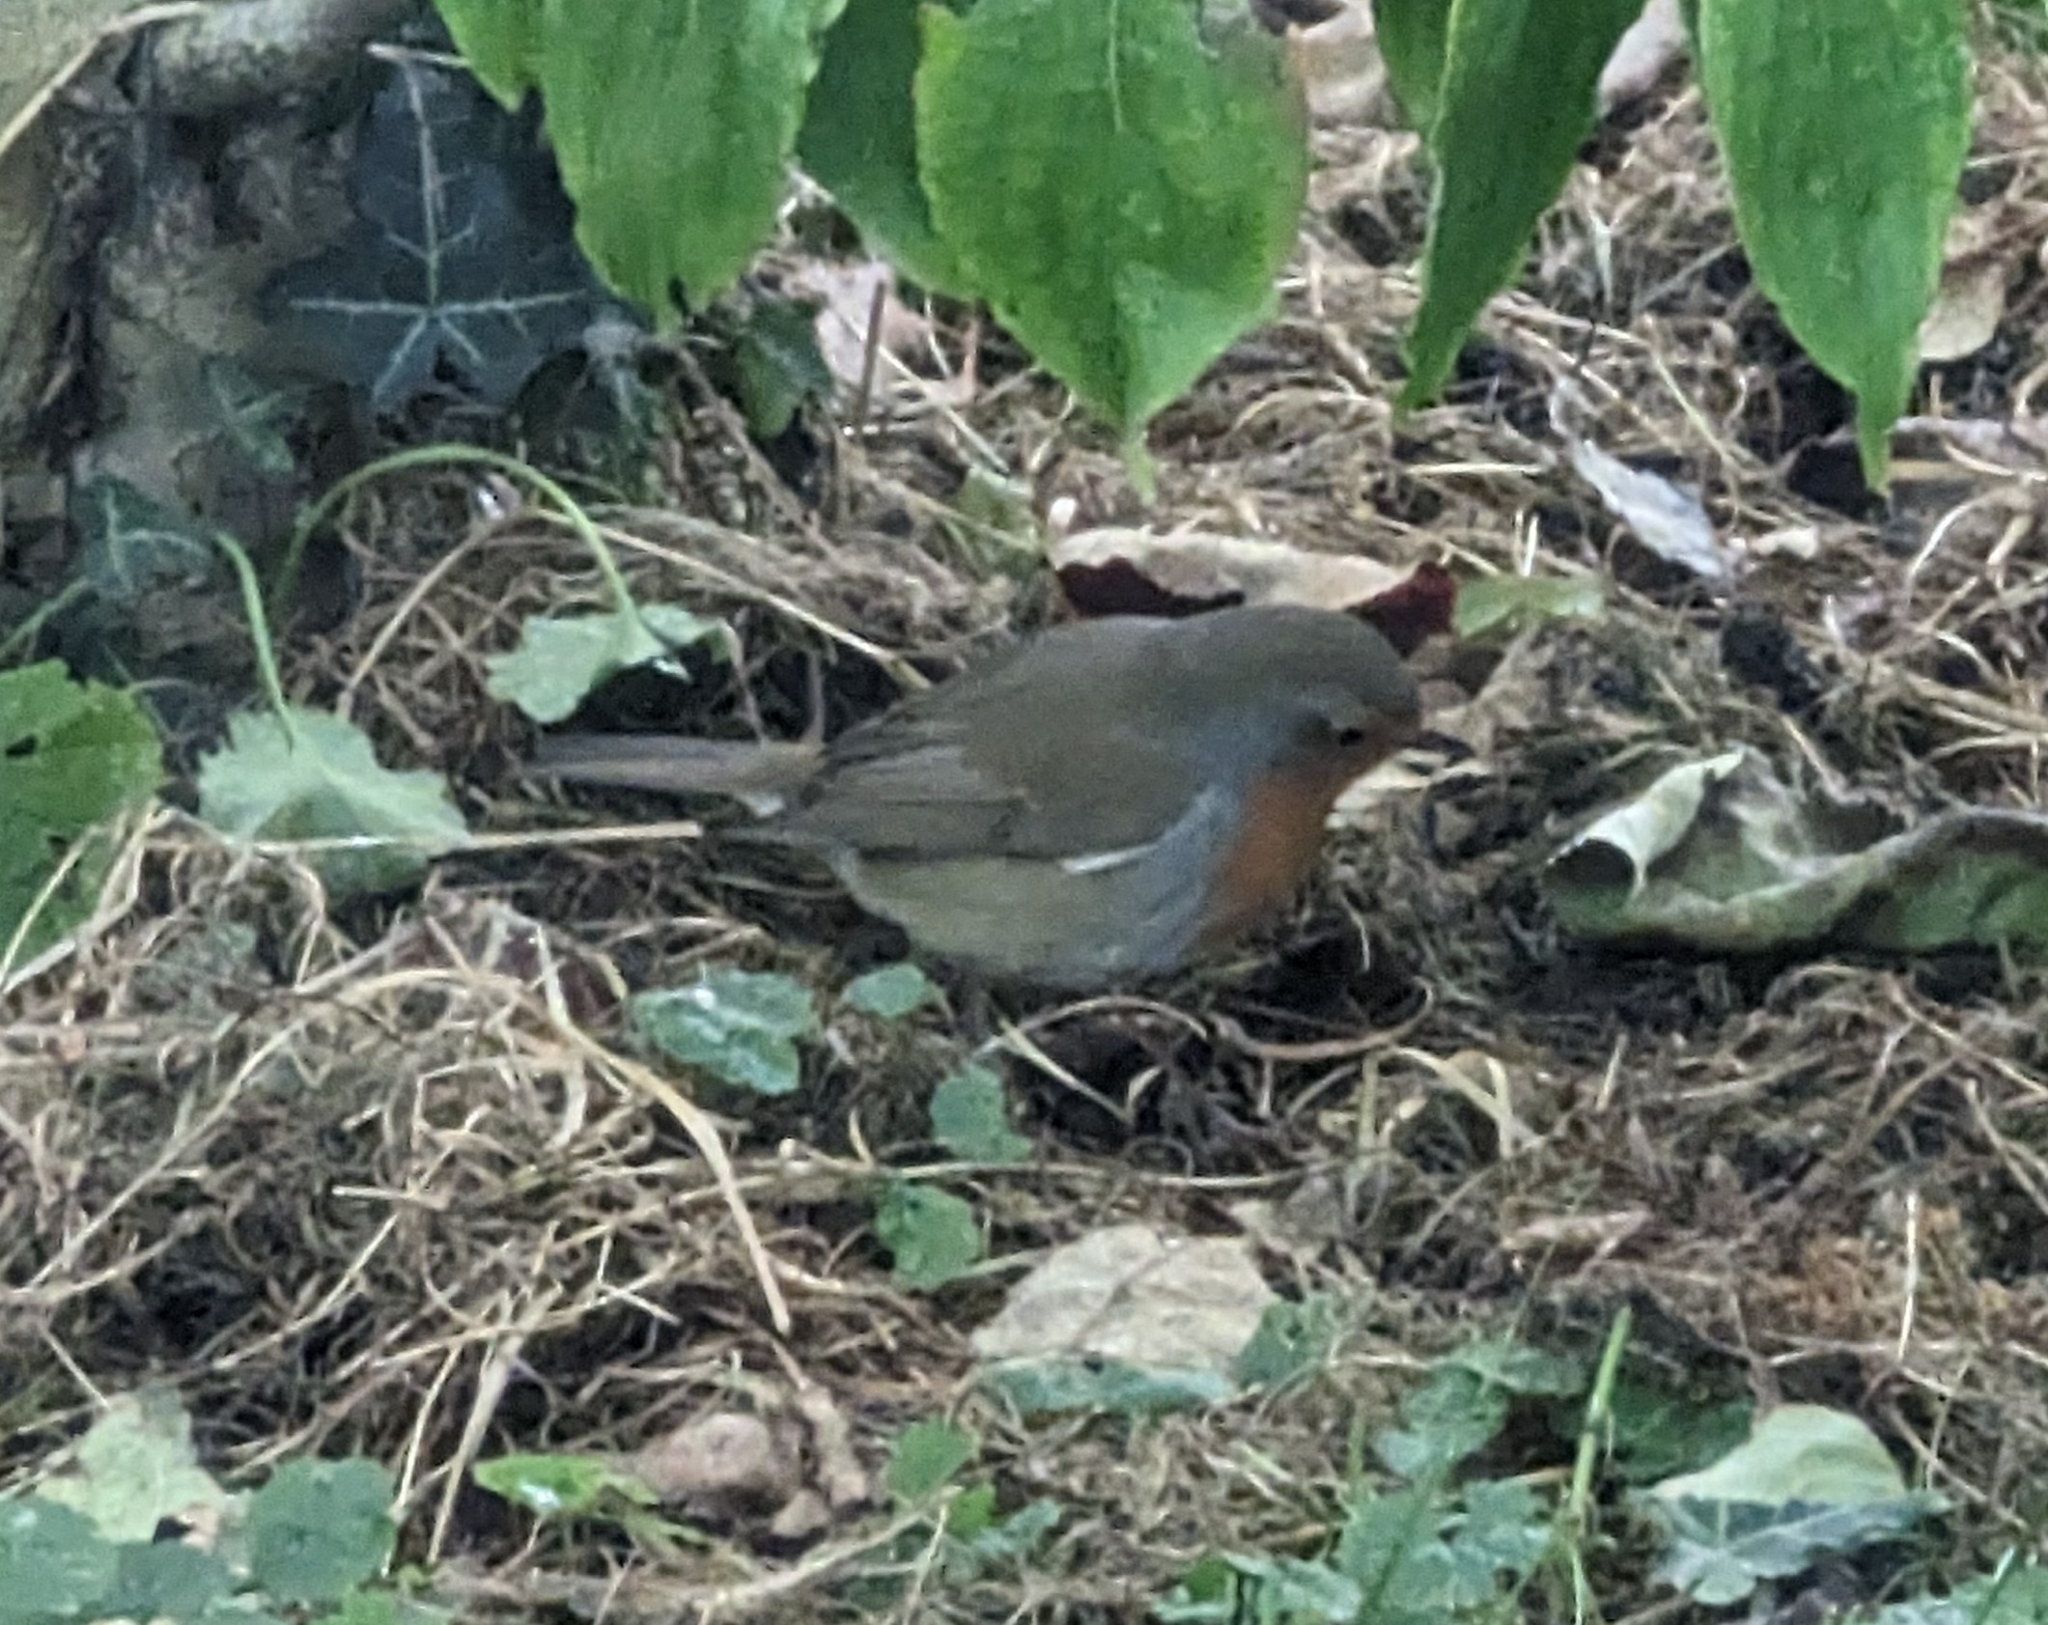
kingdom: Animalia
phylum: Chordata
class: Aves
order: Passeriformes
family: Muscicapidae
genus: Erithacus
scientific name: Erithacus rubecula
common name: European robin
